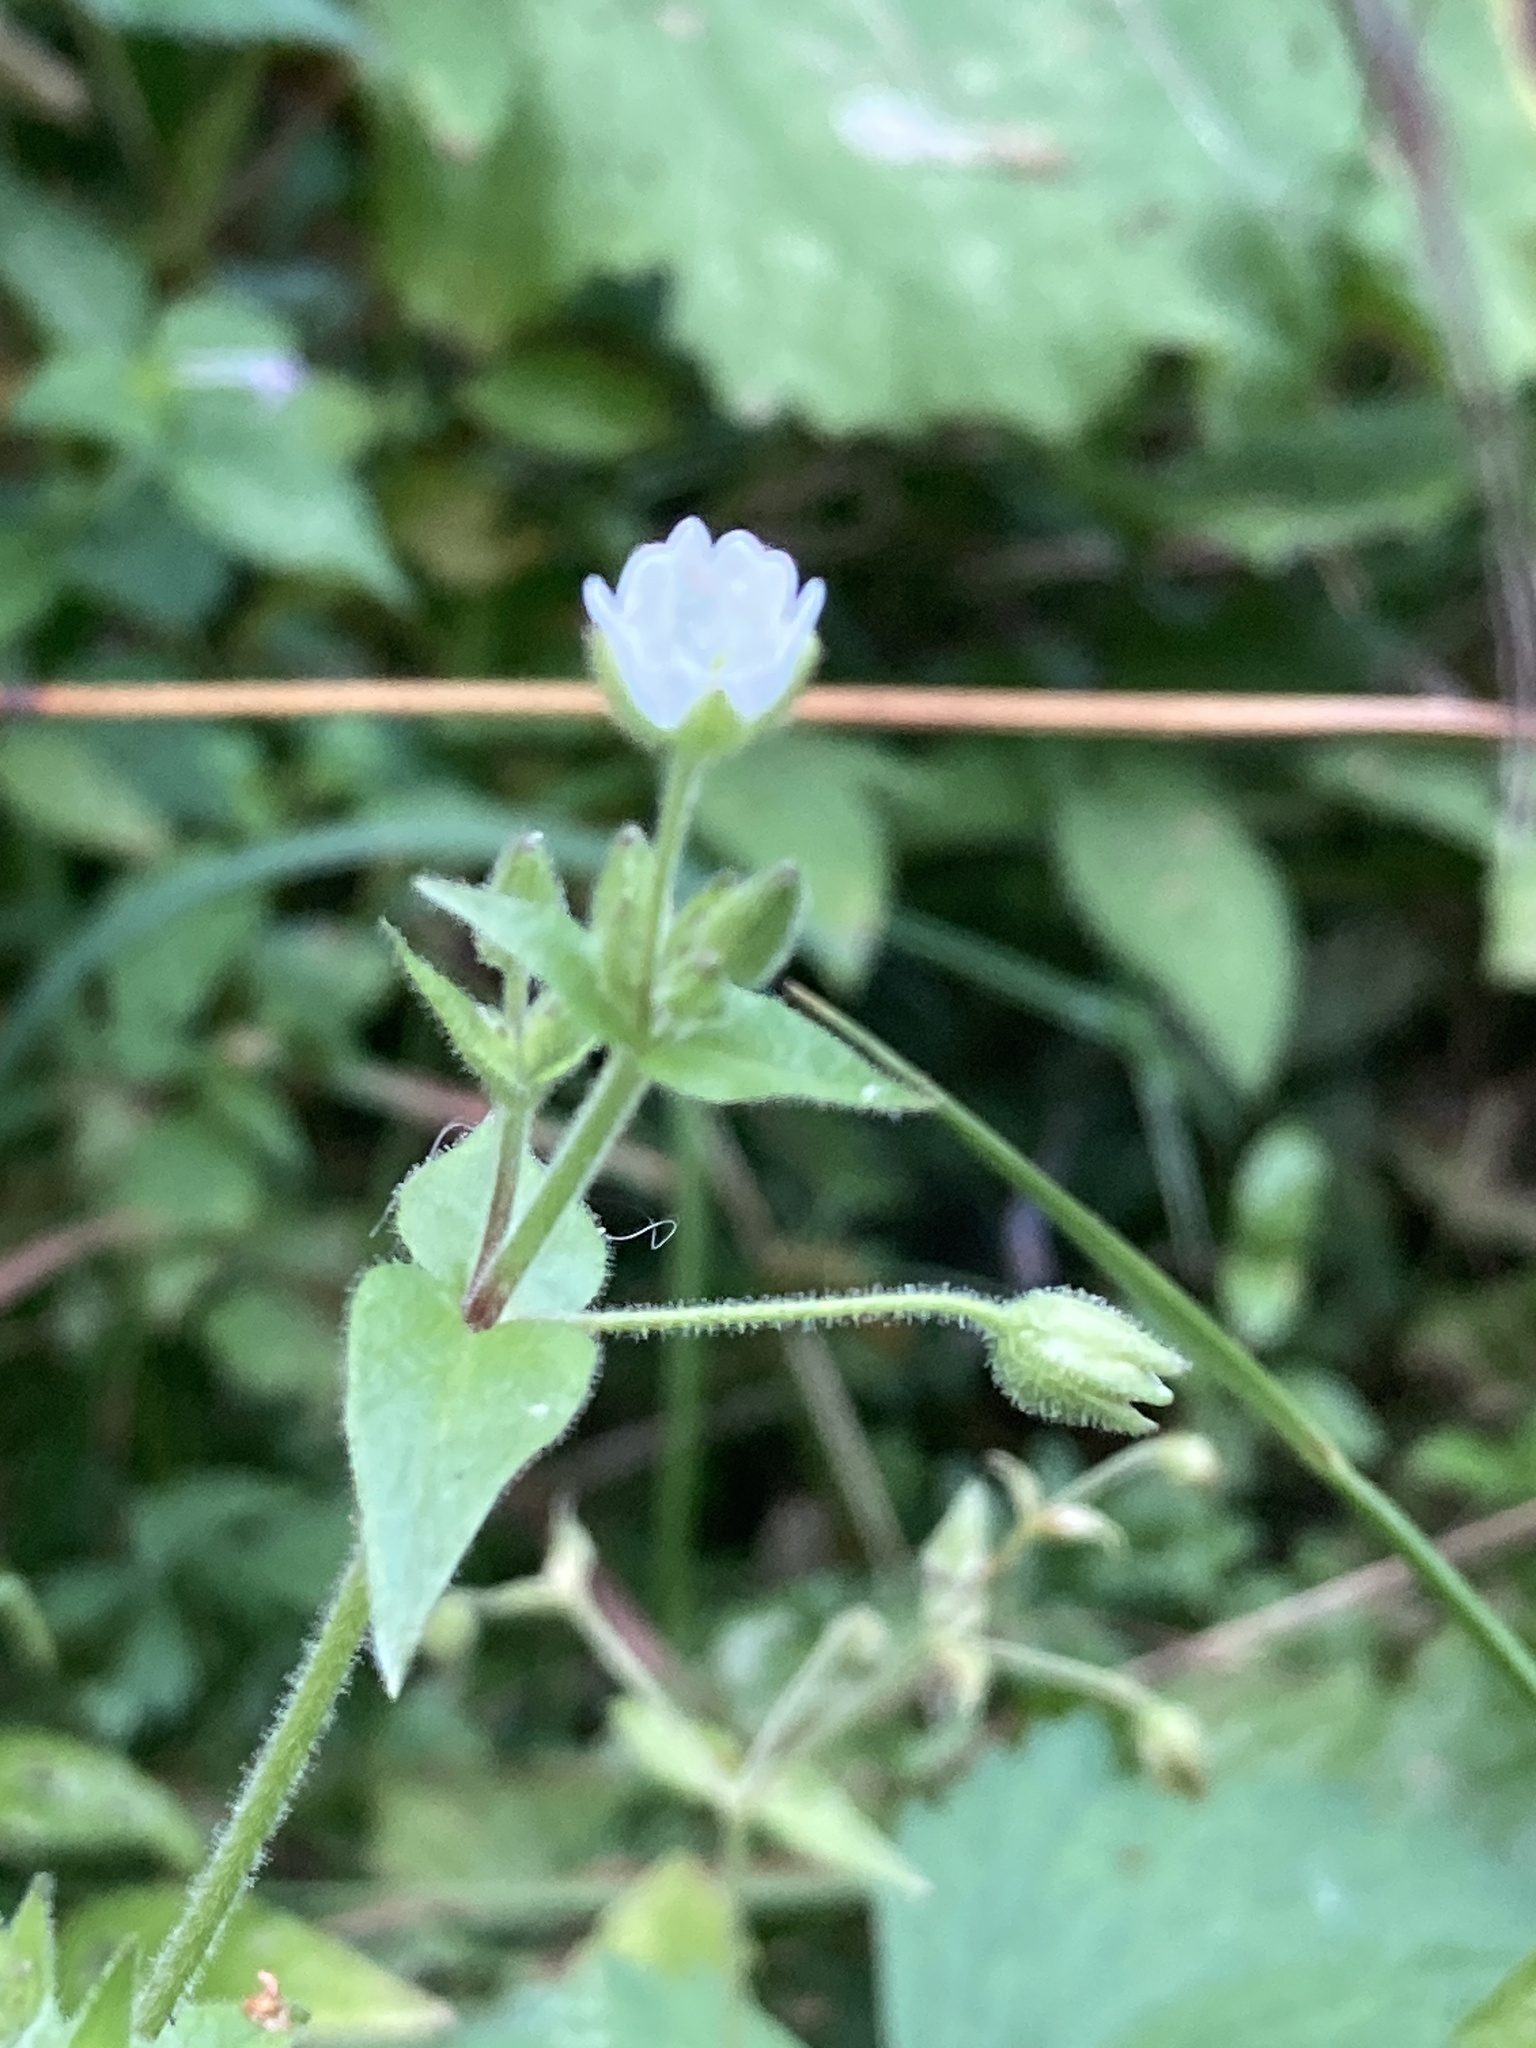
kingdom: Plantae
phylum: Tracheophyta
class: Magnoliopsida
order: Caryophyllales
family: Caryophyllaceae
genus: Stellaria
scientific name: Stellaria aquatica
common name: Water chickweed
